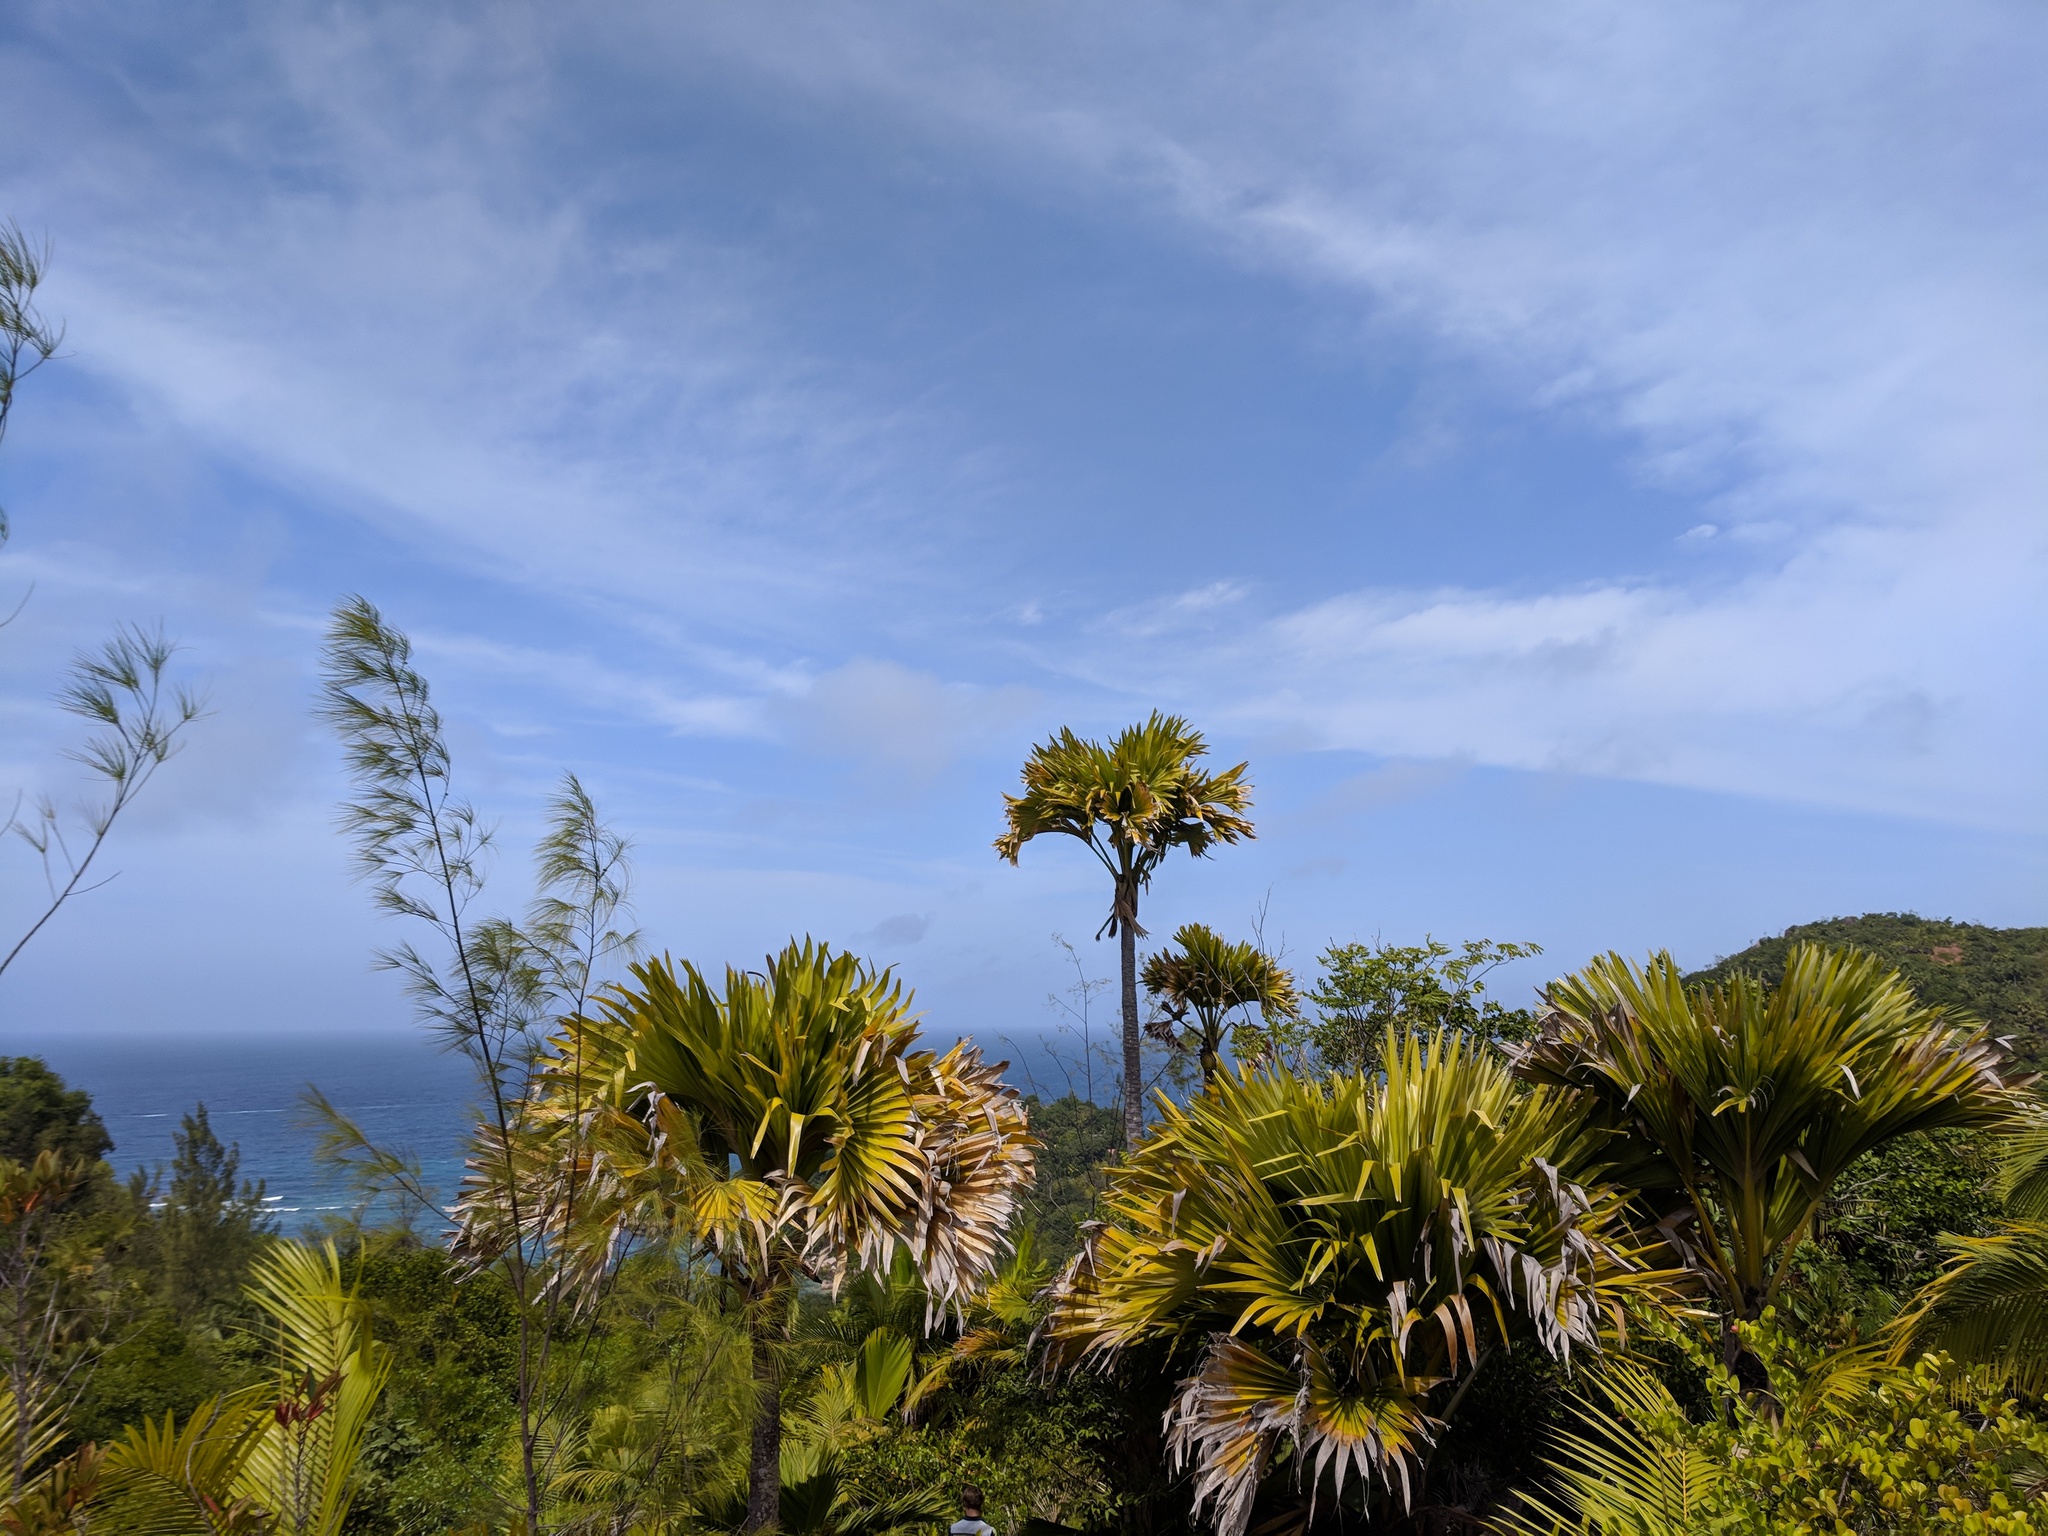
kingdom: Plantae
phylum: Tracheophyta
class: Liliopsida
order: Arecales
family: Arecaceae
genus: Lodoicea
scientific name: Lodoicea maldivica
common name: Double coconut palm
